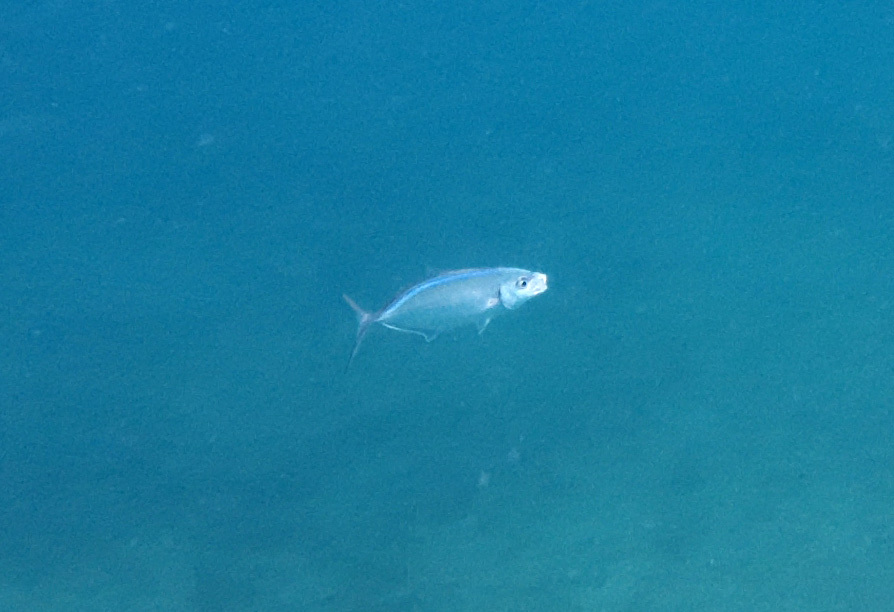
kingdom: Animalia
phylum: Chordata
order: Perciformes
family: Carangidae
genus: Caranx
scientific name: Caranx ruber
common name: Bar jack
